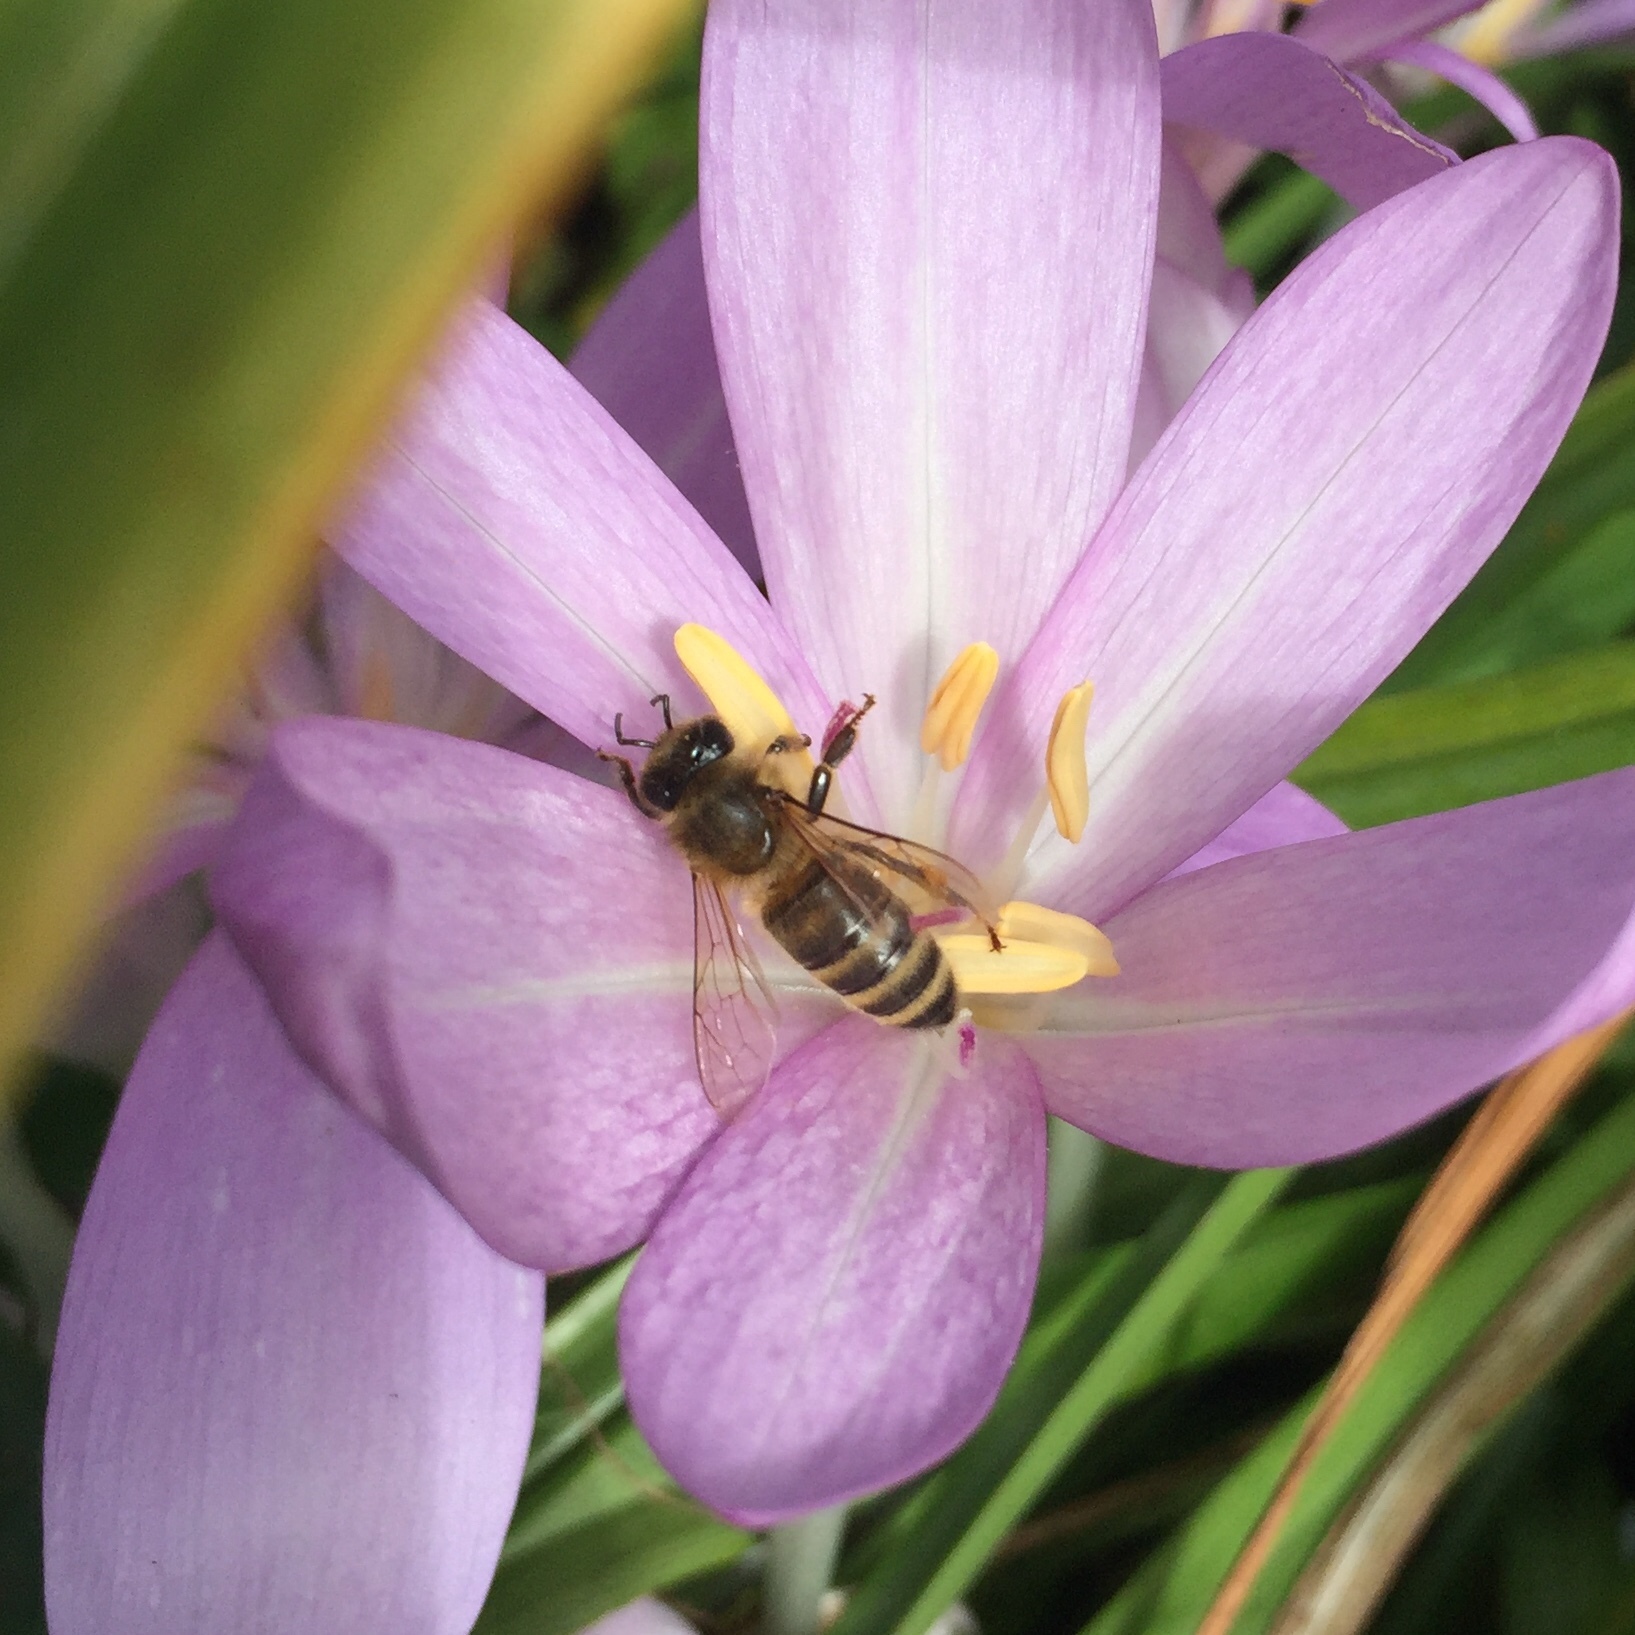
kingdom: Animalia
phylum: Arthropoda
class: Insecta
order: Hymenoptera
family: Apidae
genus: Apis
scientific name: Apis mellifera
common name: Honey bee
